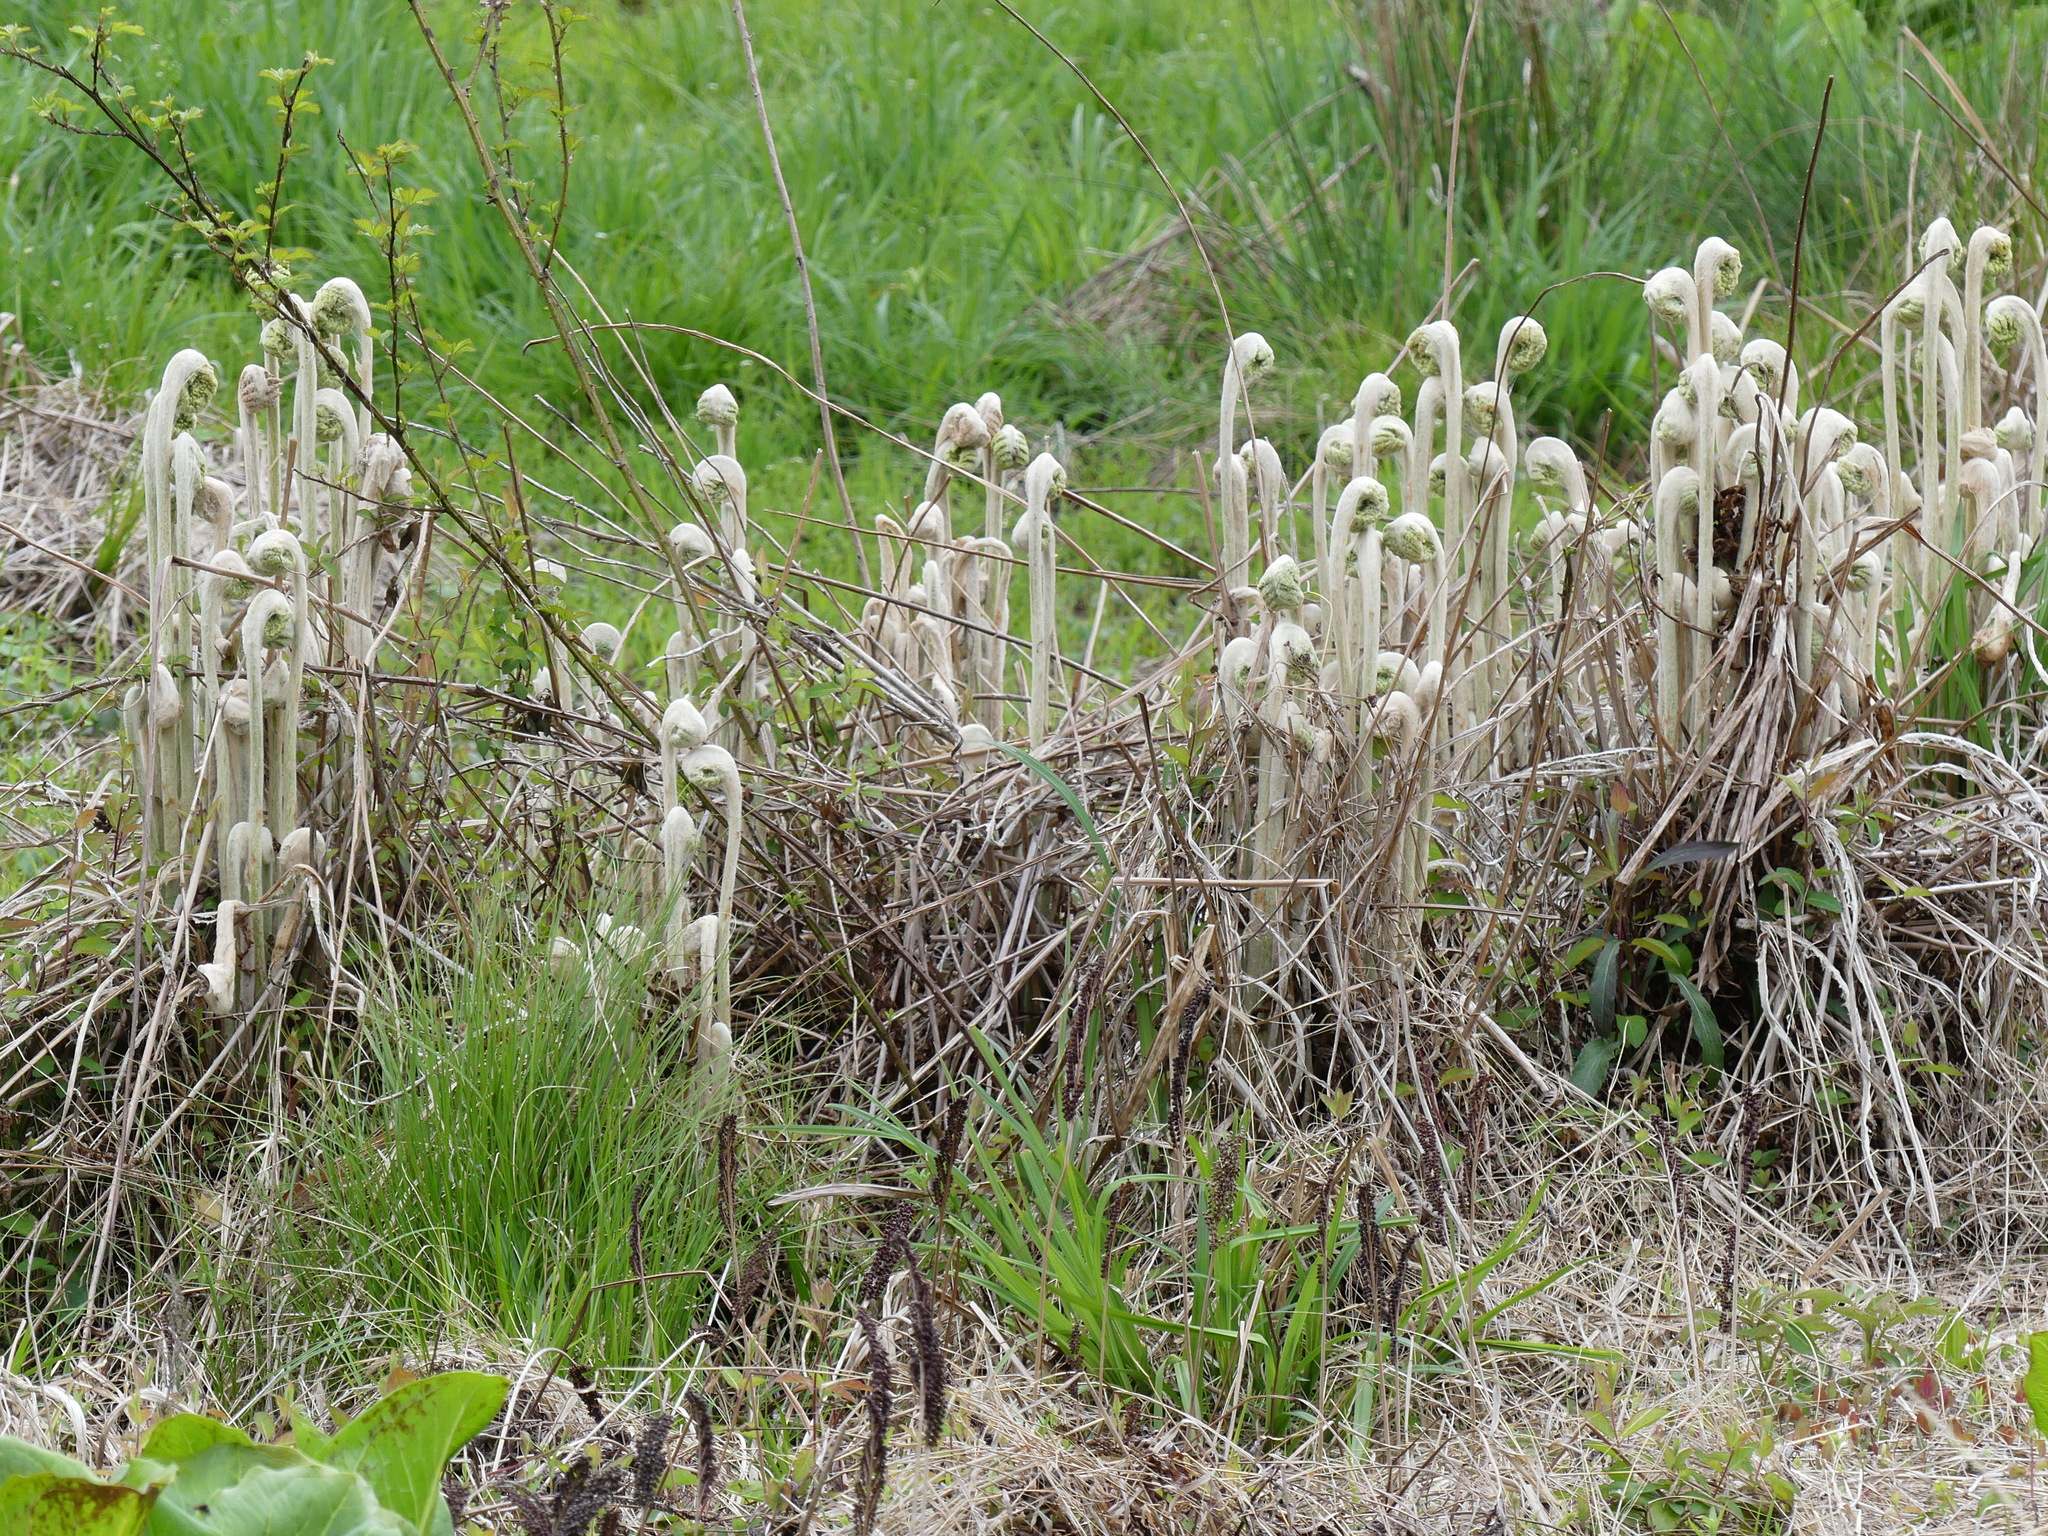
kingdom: Plantae
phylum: Tracheophyta
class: Polypodiopsida
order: Osmundales
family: Osmundaceae
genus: Osmundastrum
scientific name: Osmundastrum cinnamomeum
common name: Cinnamon fern
